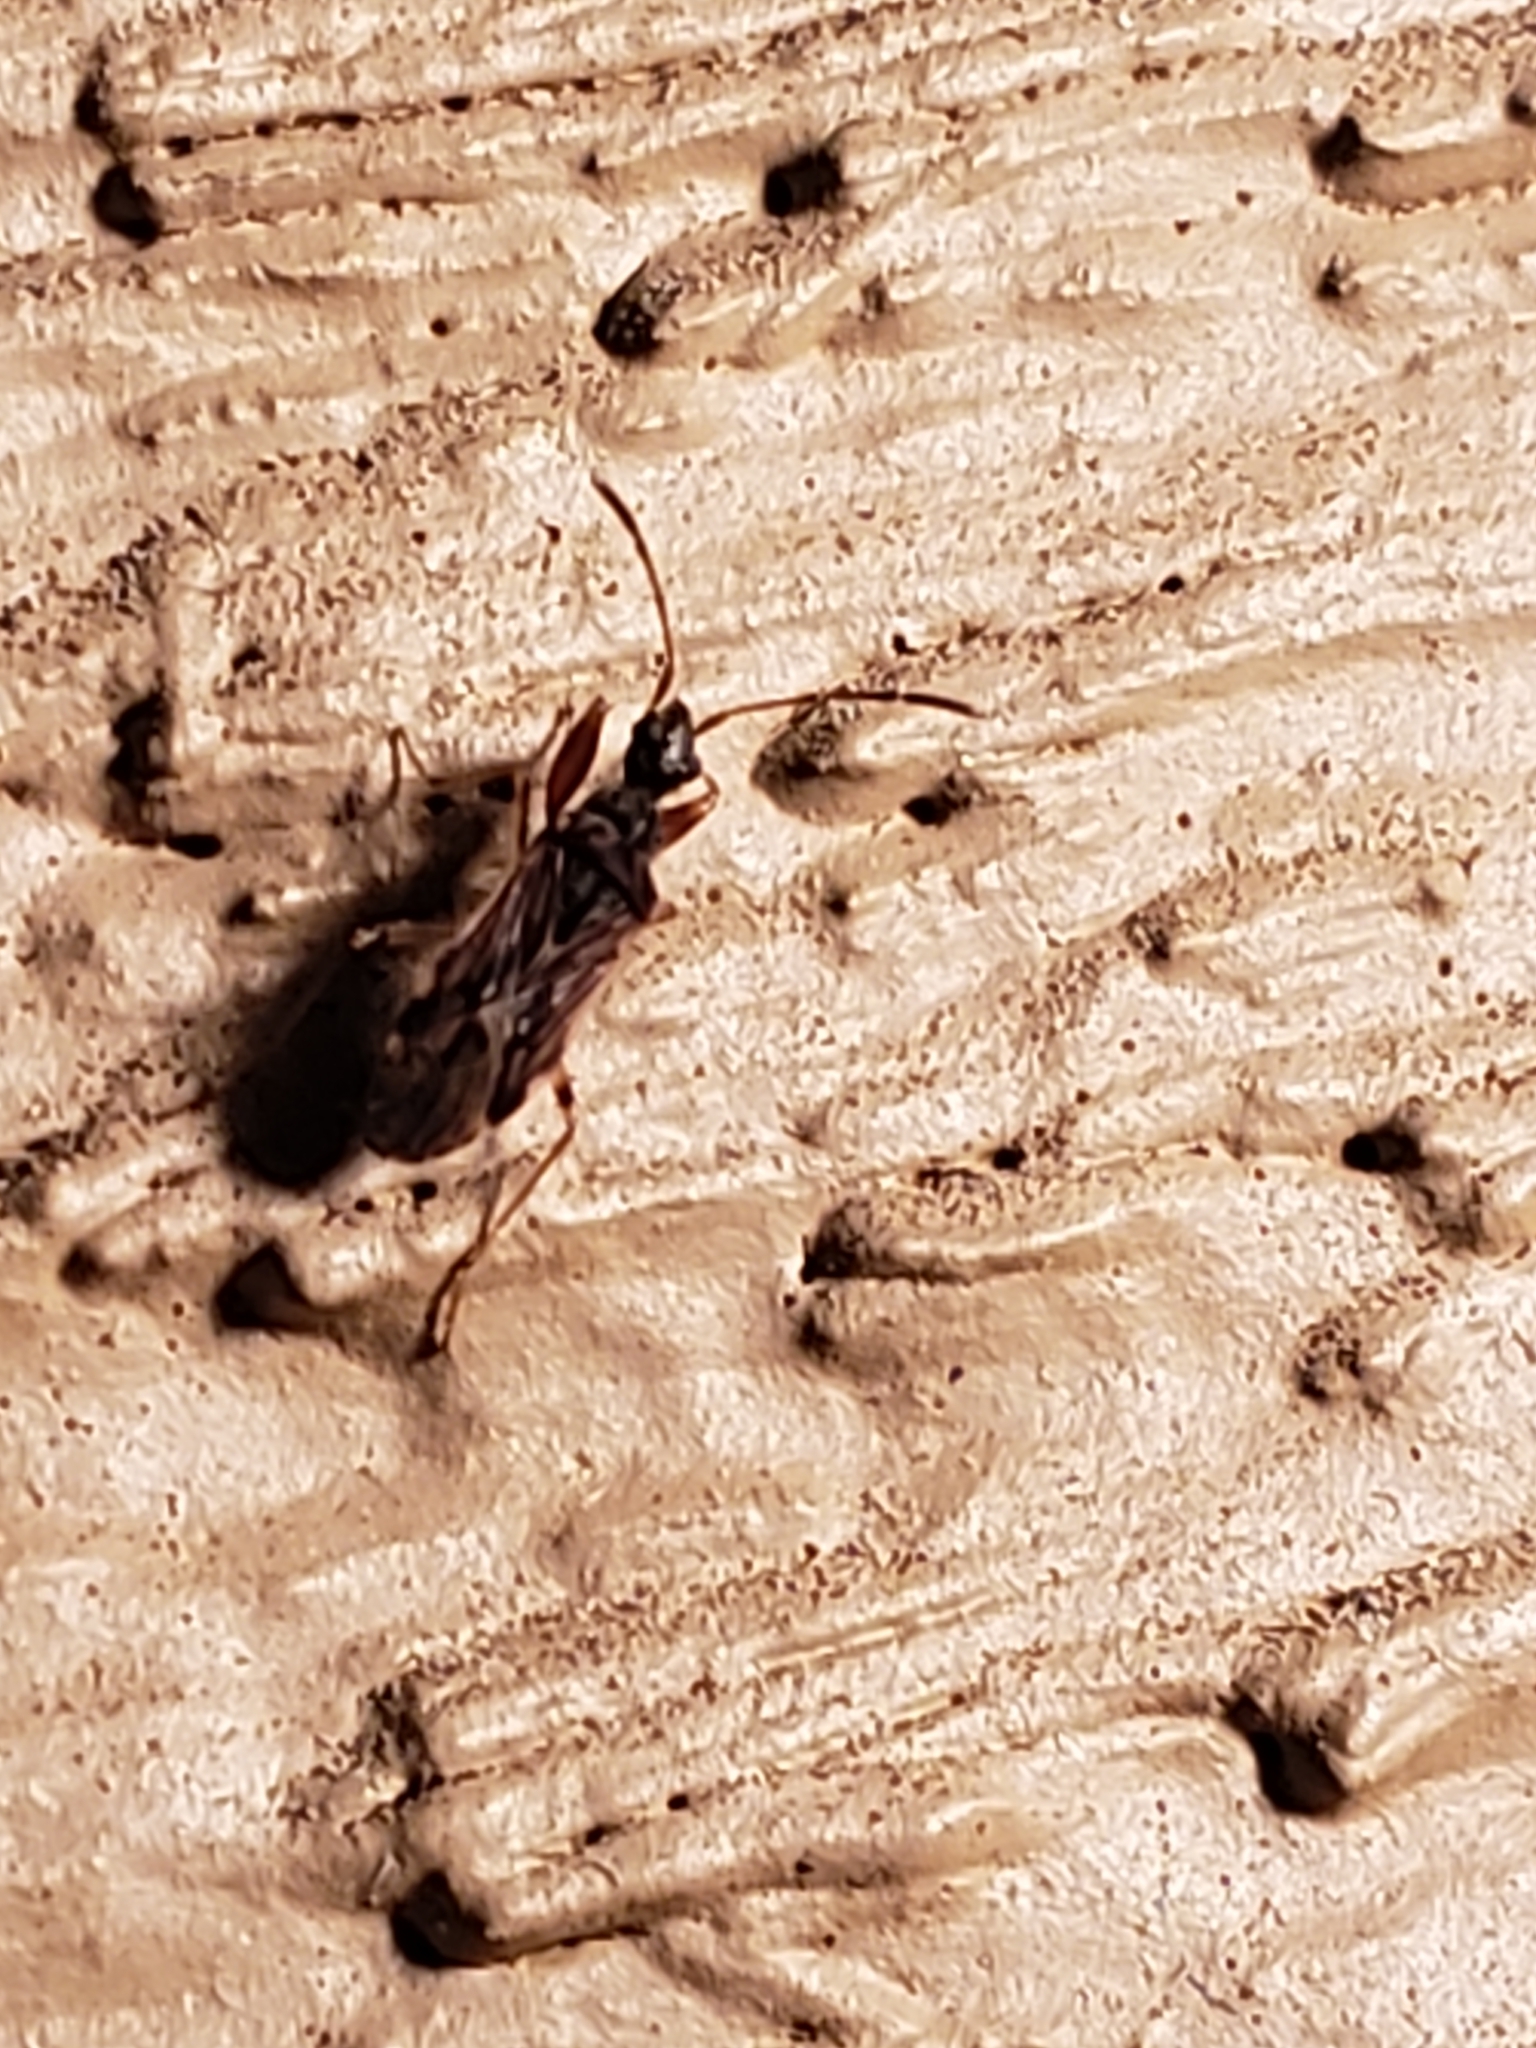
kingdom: Animalia
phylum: Arthropoda
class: Insecta
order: Hemiptera
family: Rhyparochromidae
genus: Heraeus
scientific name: Heraeus plebejus
